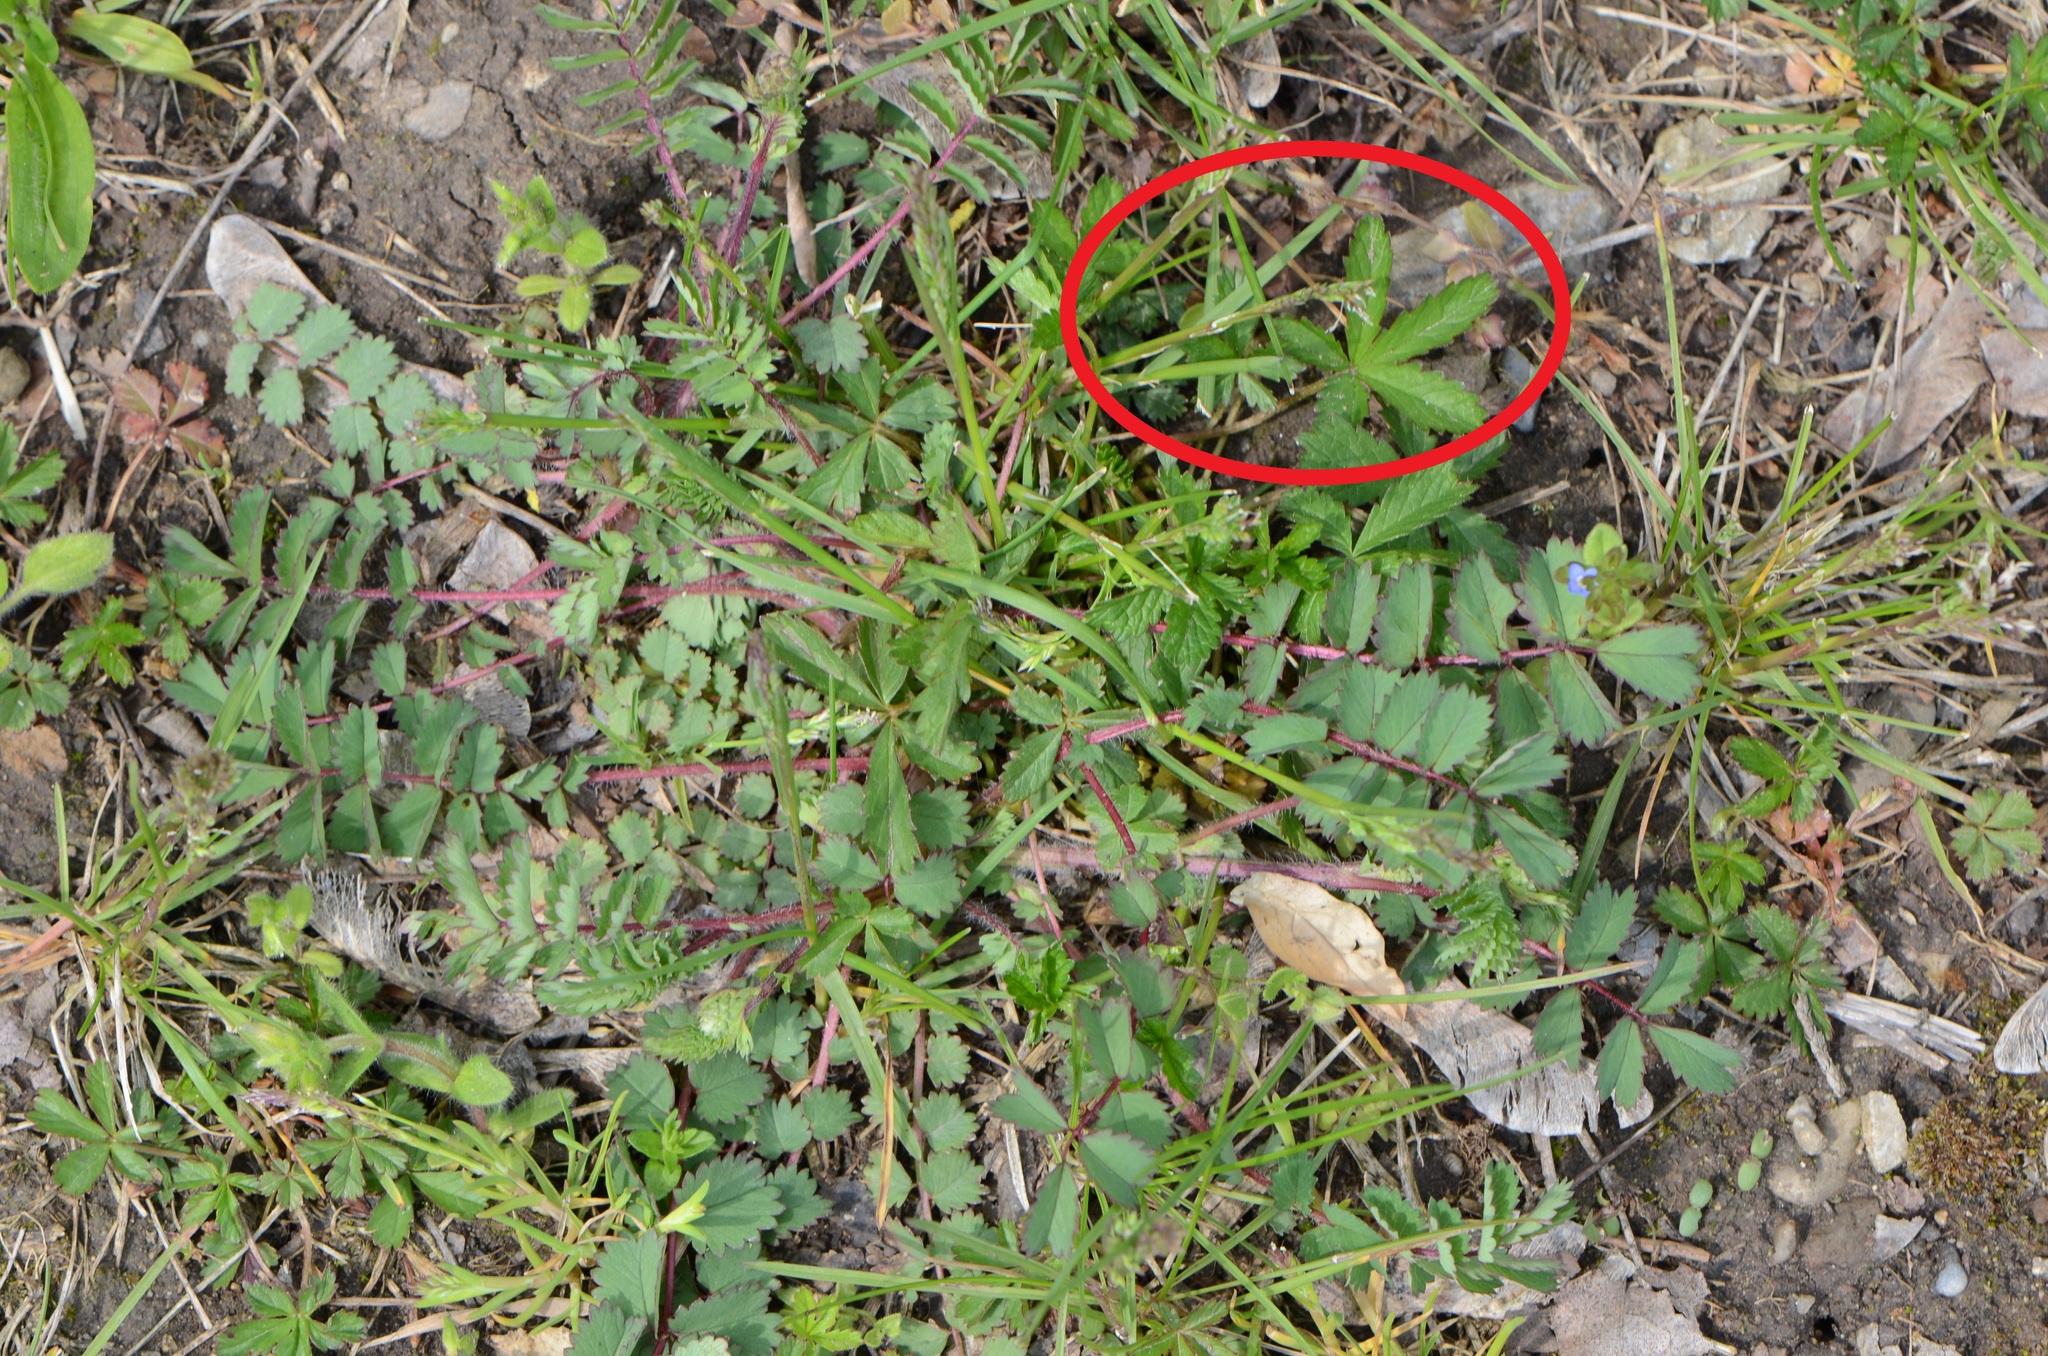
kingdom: Plantae
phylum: Tracheophyta
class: Magnoliopsida
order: Rosales
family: Rosaceae
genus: Potentilla
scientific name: Potentilla reptans
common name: Creeping cinquefoil
